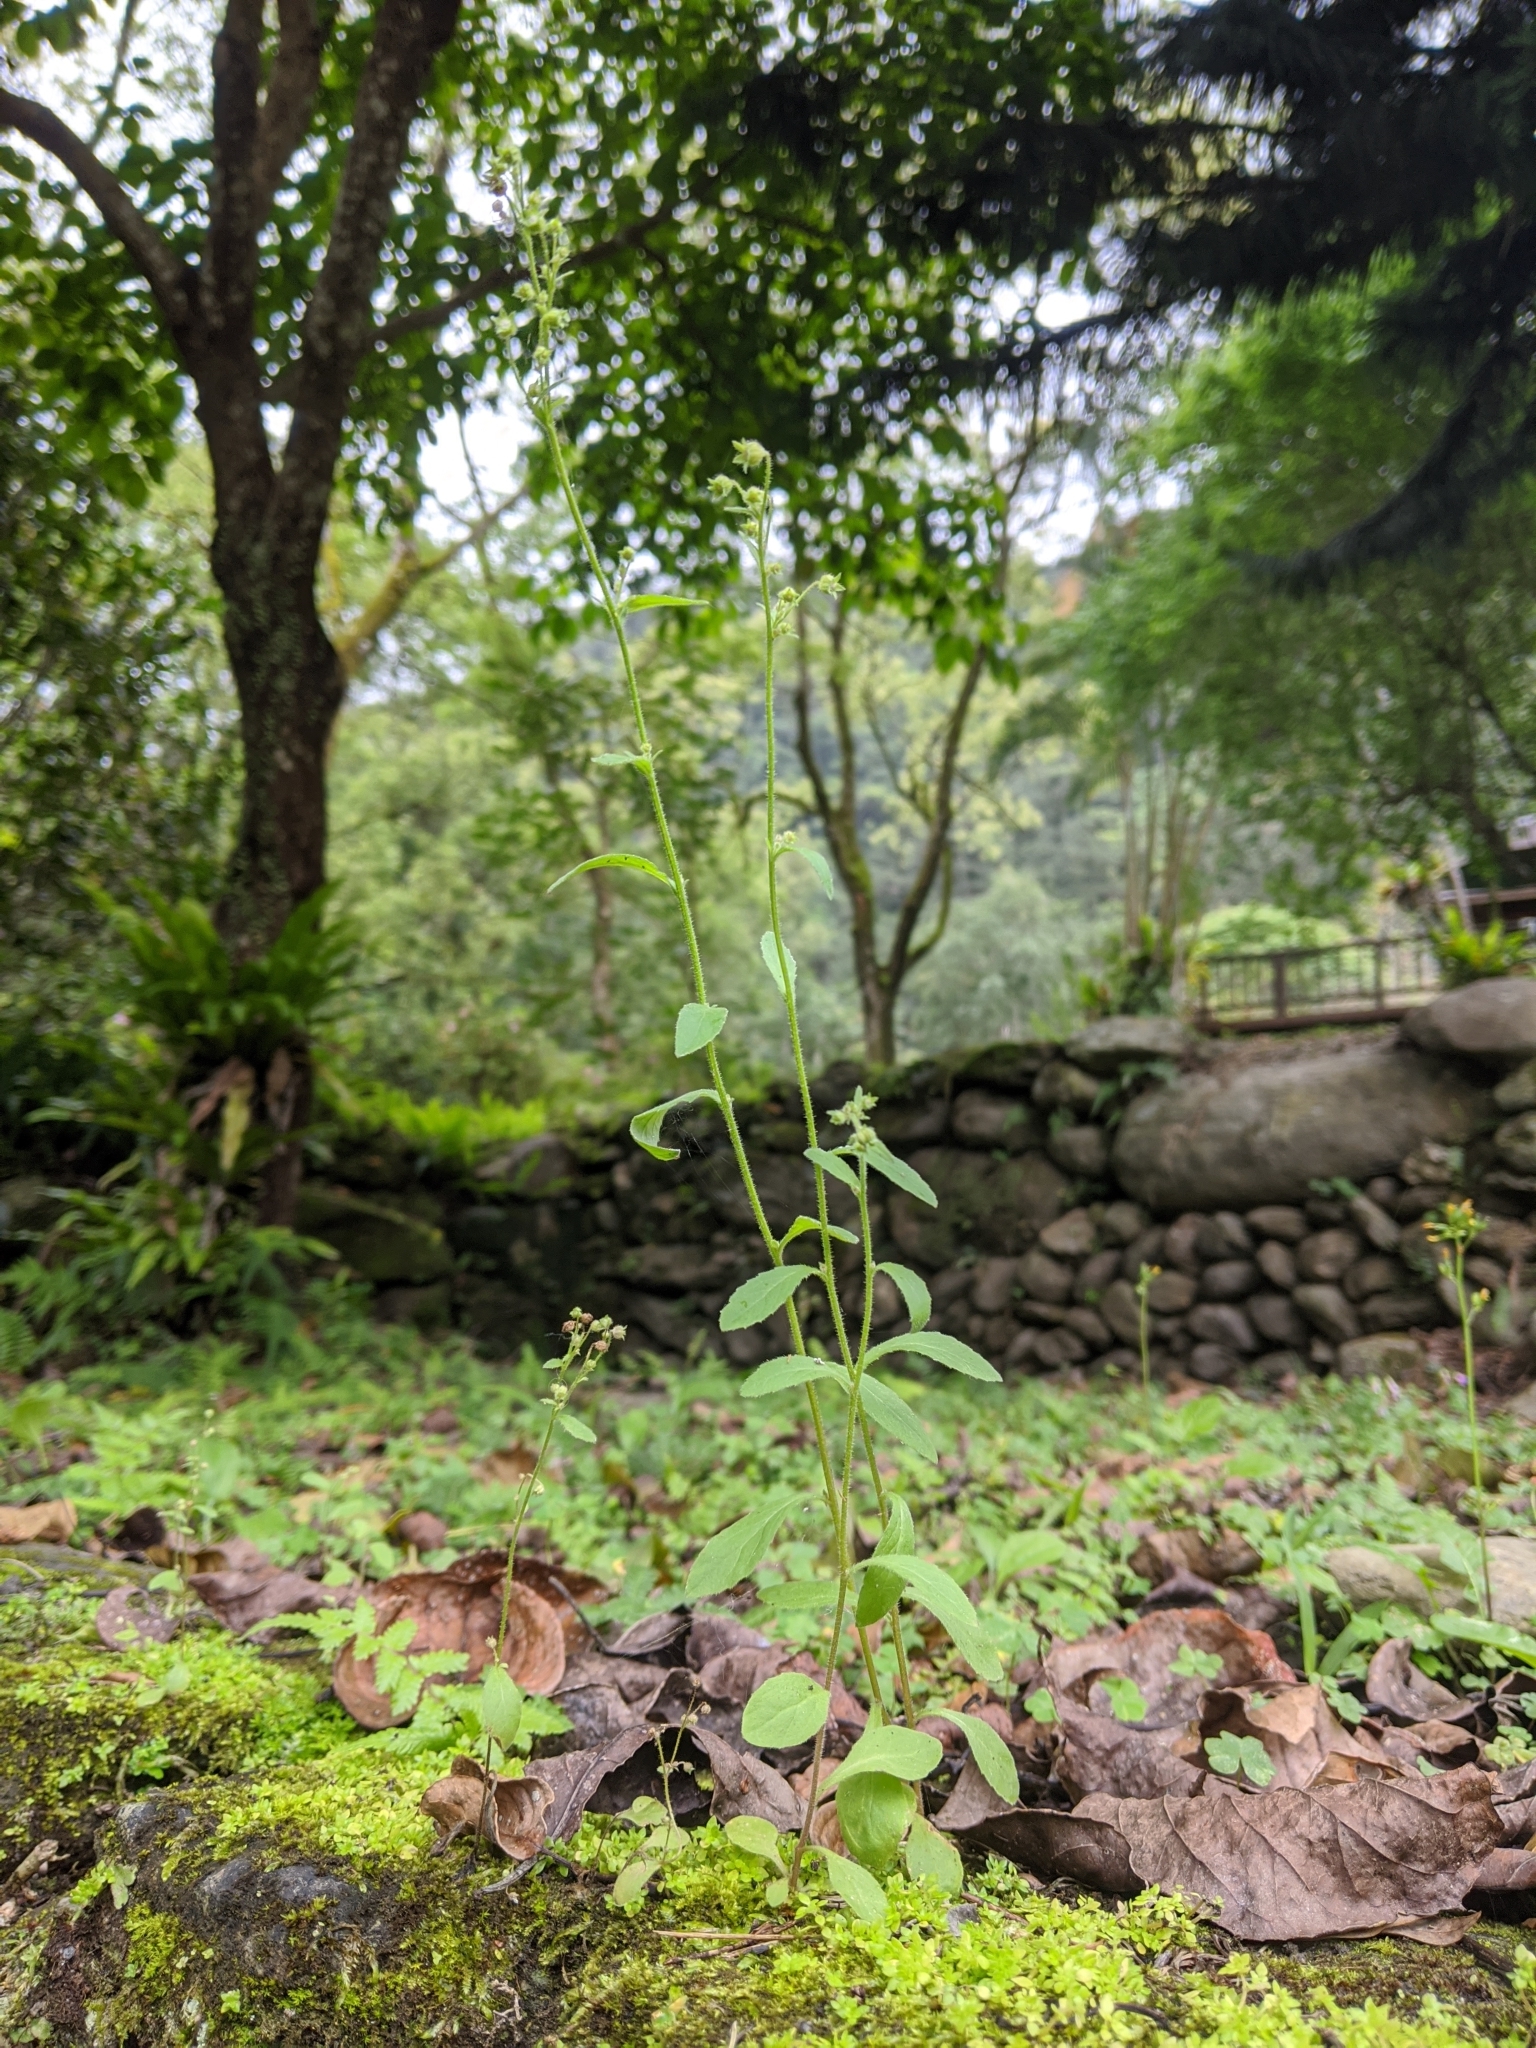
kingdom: Plantae
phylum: Tracheophyta
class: Magnoliopsida
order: Asterales
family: Campanulaceae
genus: Campanula
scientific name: Campanula dimorphantha
